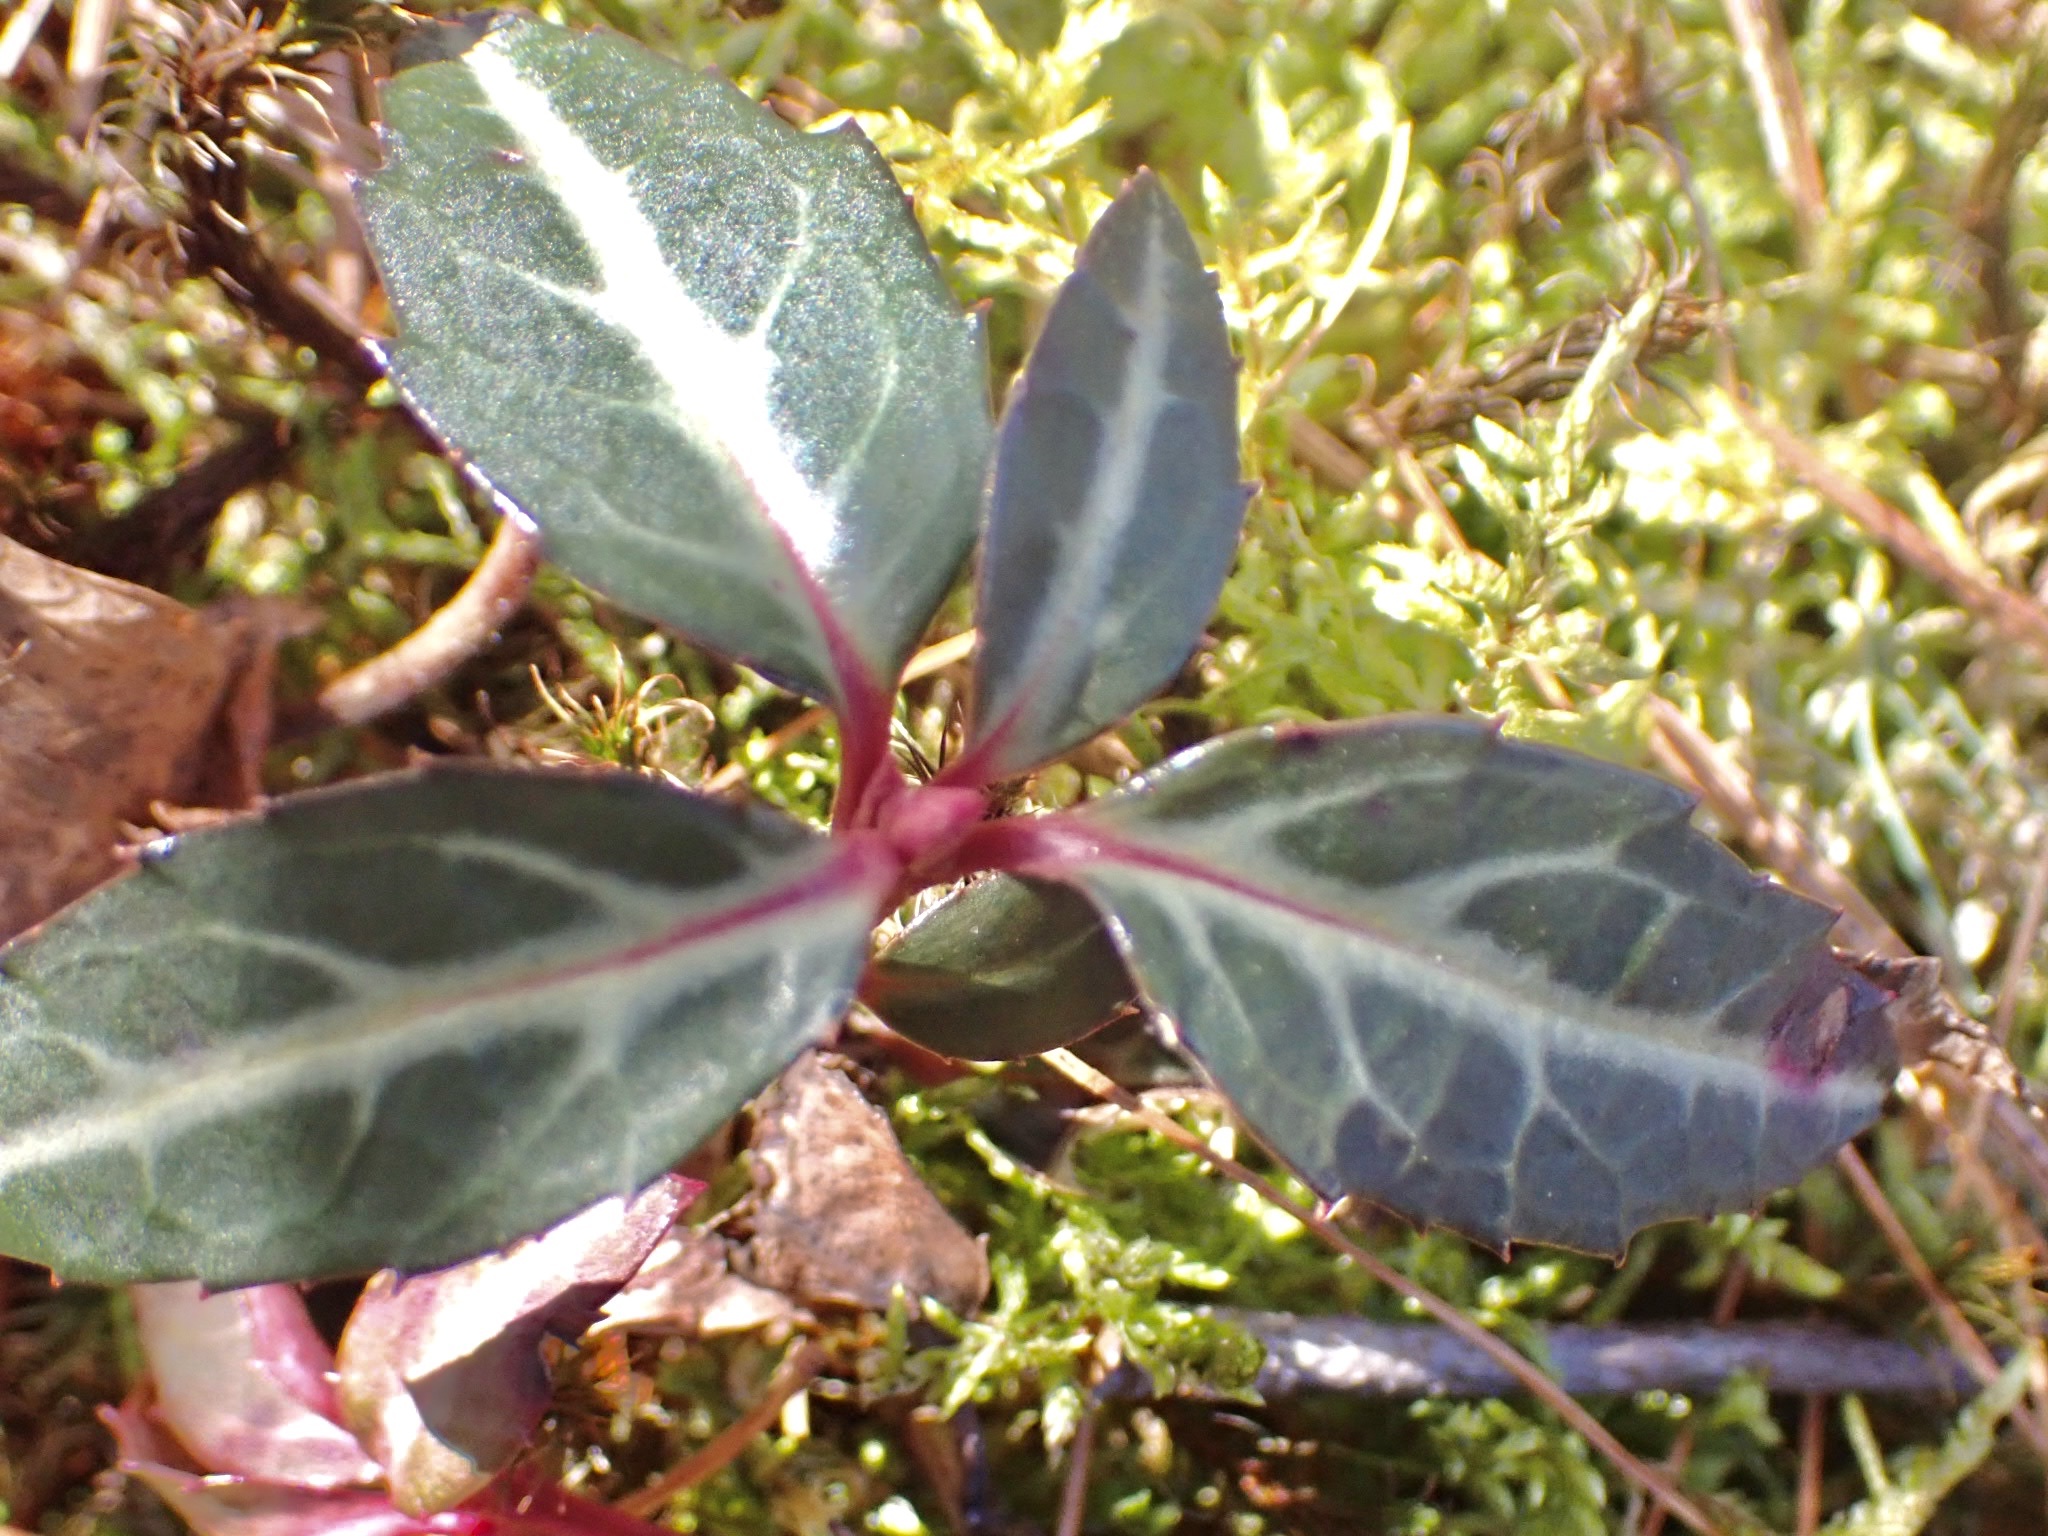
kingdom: Plantae
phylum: Tracheophyta
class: Magnoliopsida
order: Ericales
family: Ericaceae
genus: Chimaphila
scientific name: Chimaphila maculata
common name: Spotted pipsissewa
